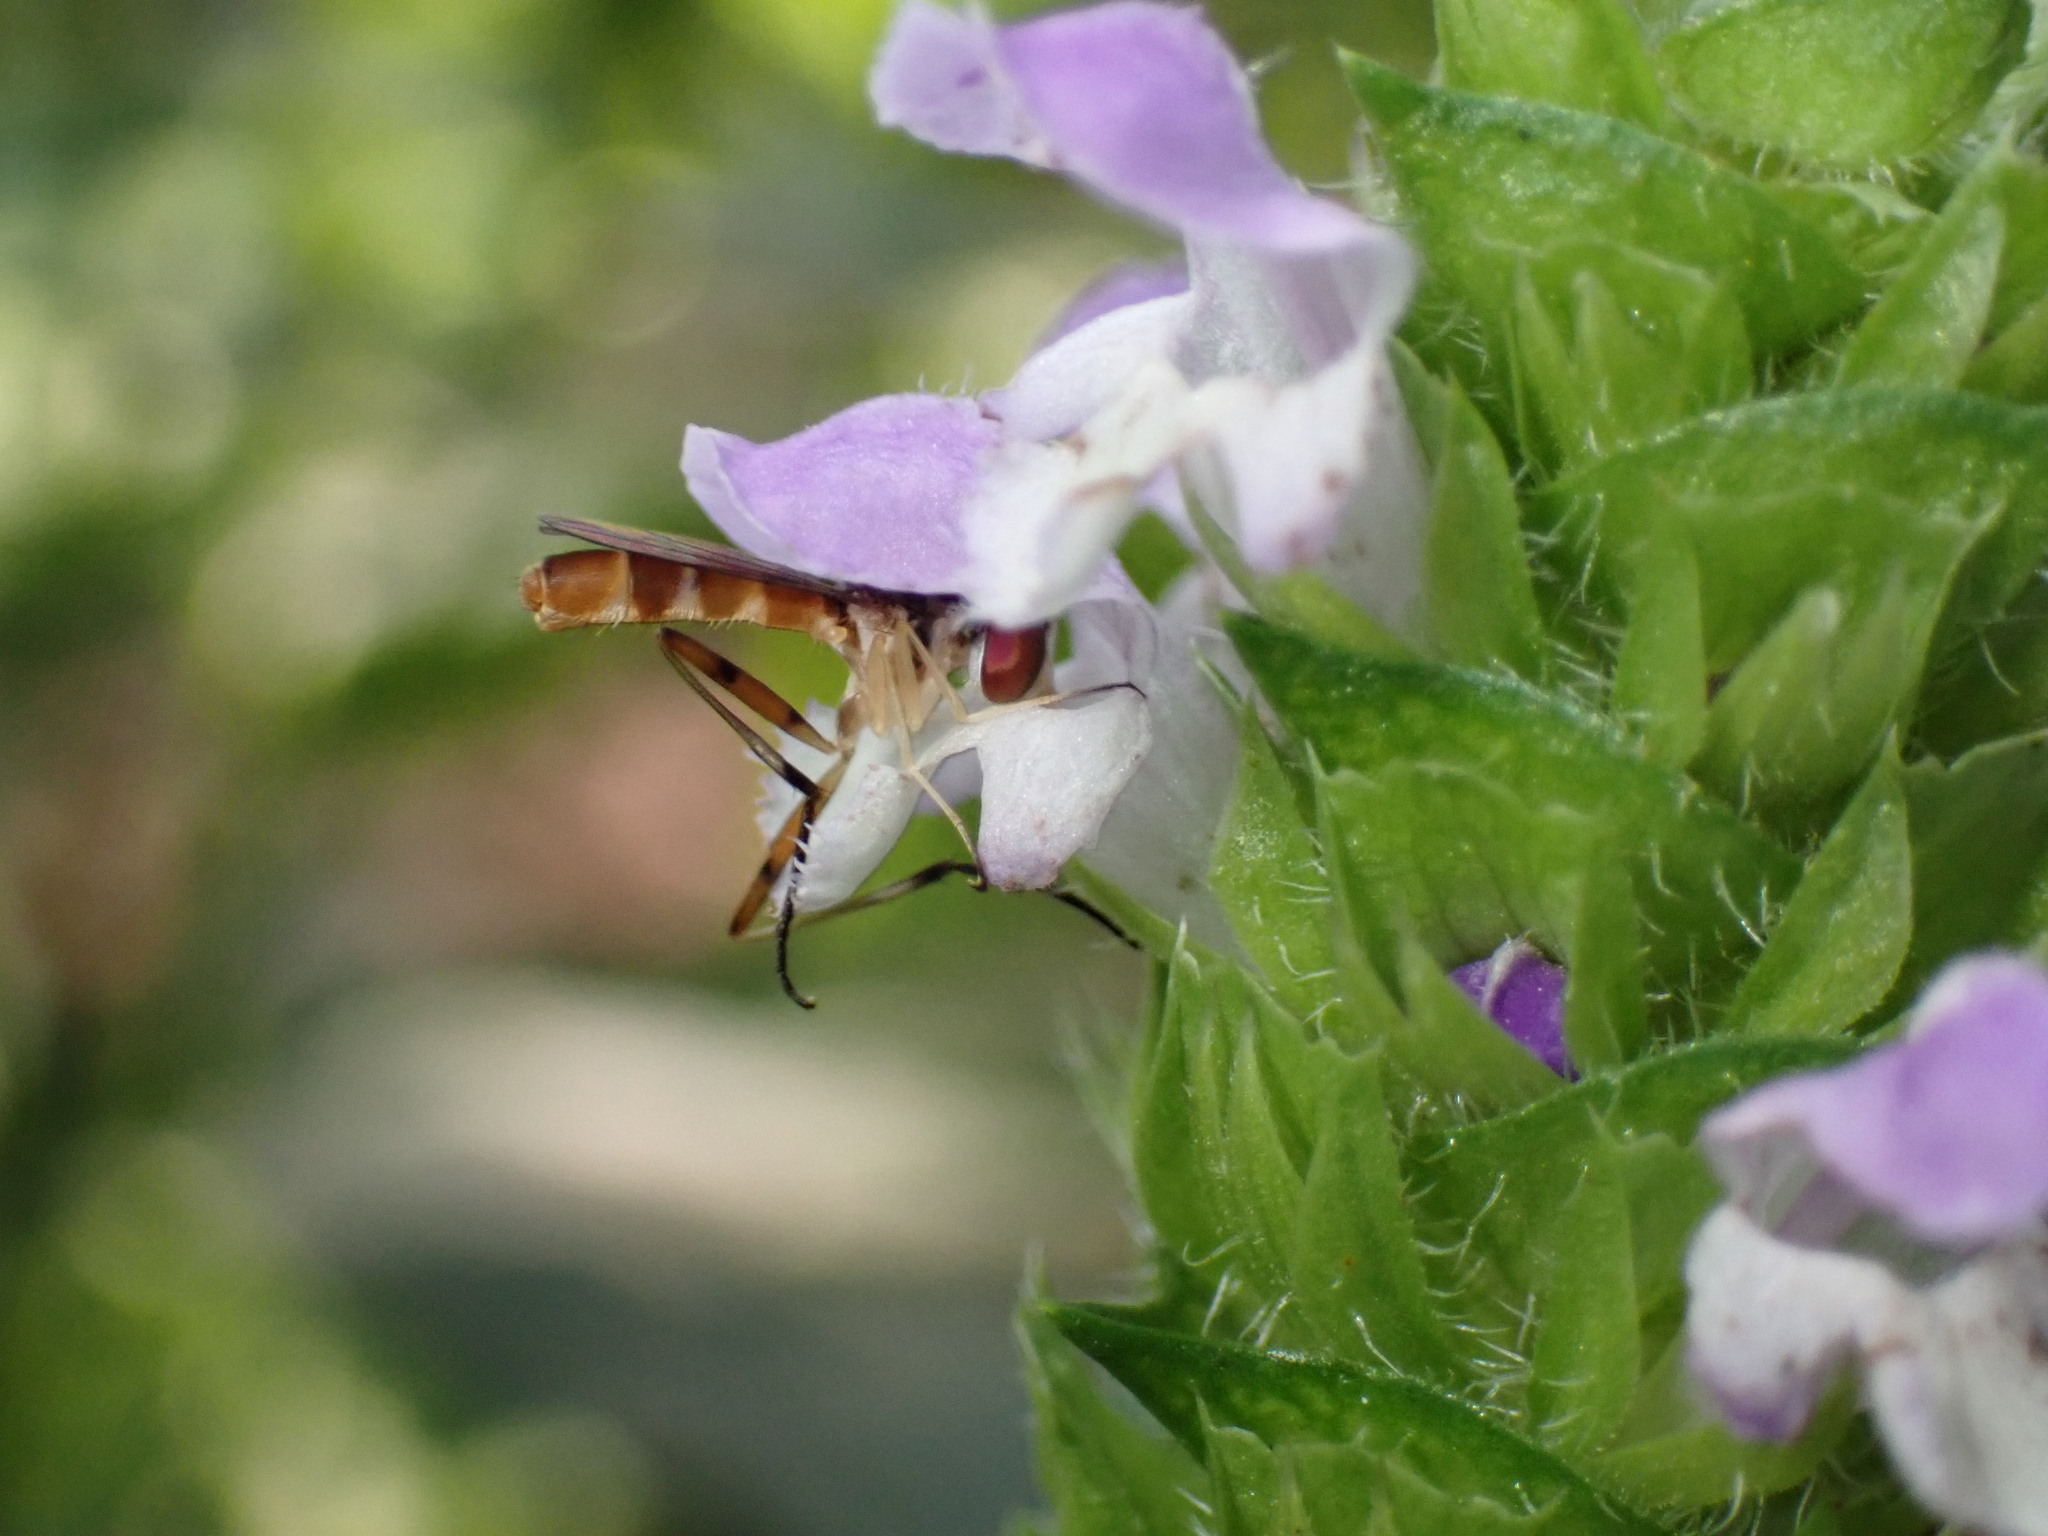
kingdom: Animalia
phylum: Arthropoda
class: Insecta
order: Diptera
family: Conopidae
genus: Stylogaster
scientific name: Stylogaster neglecta
